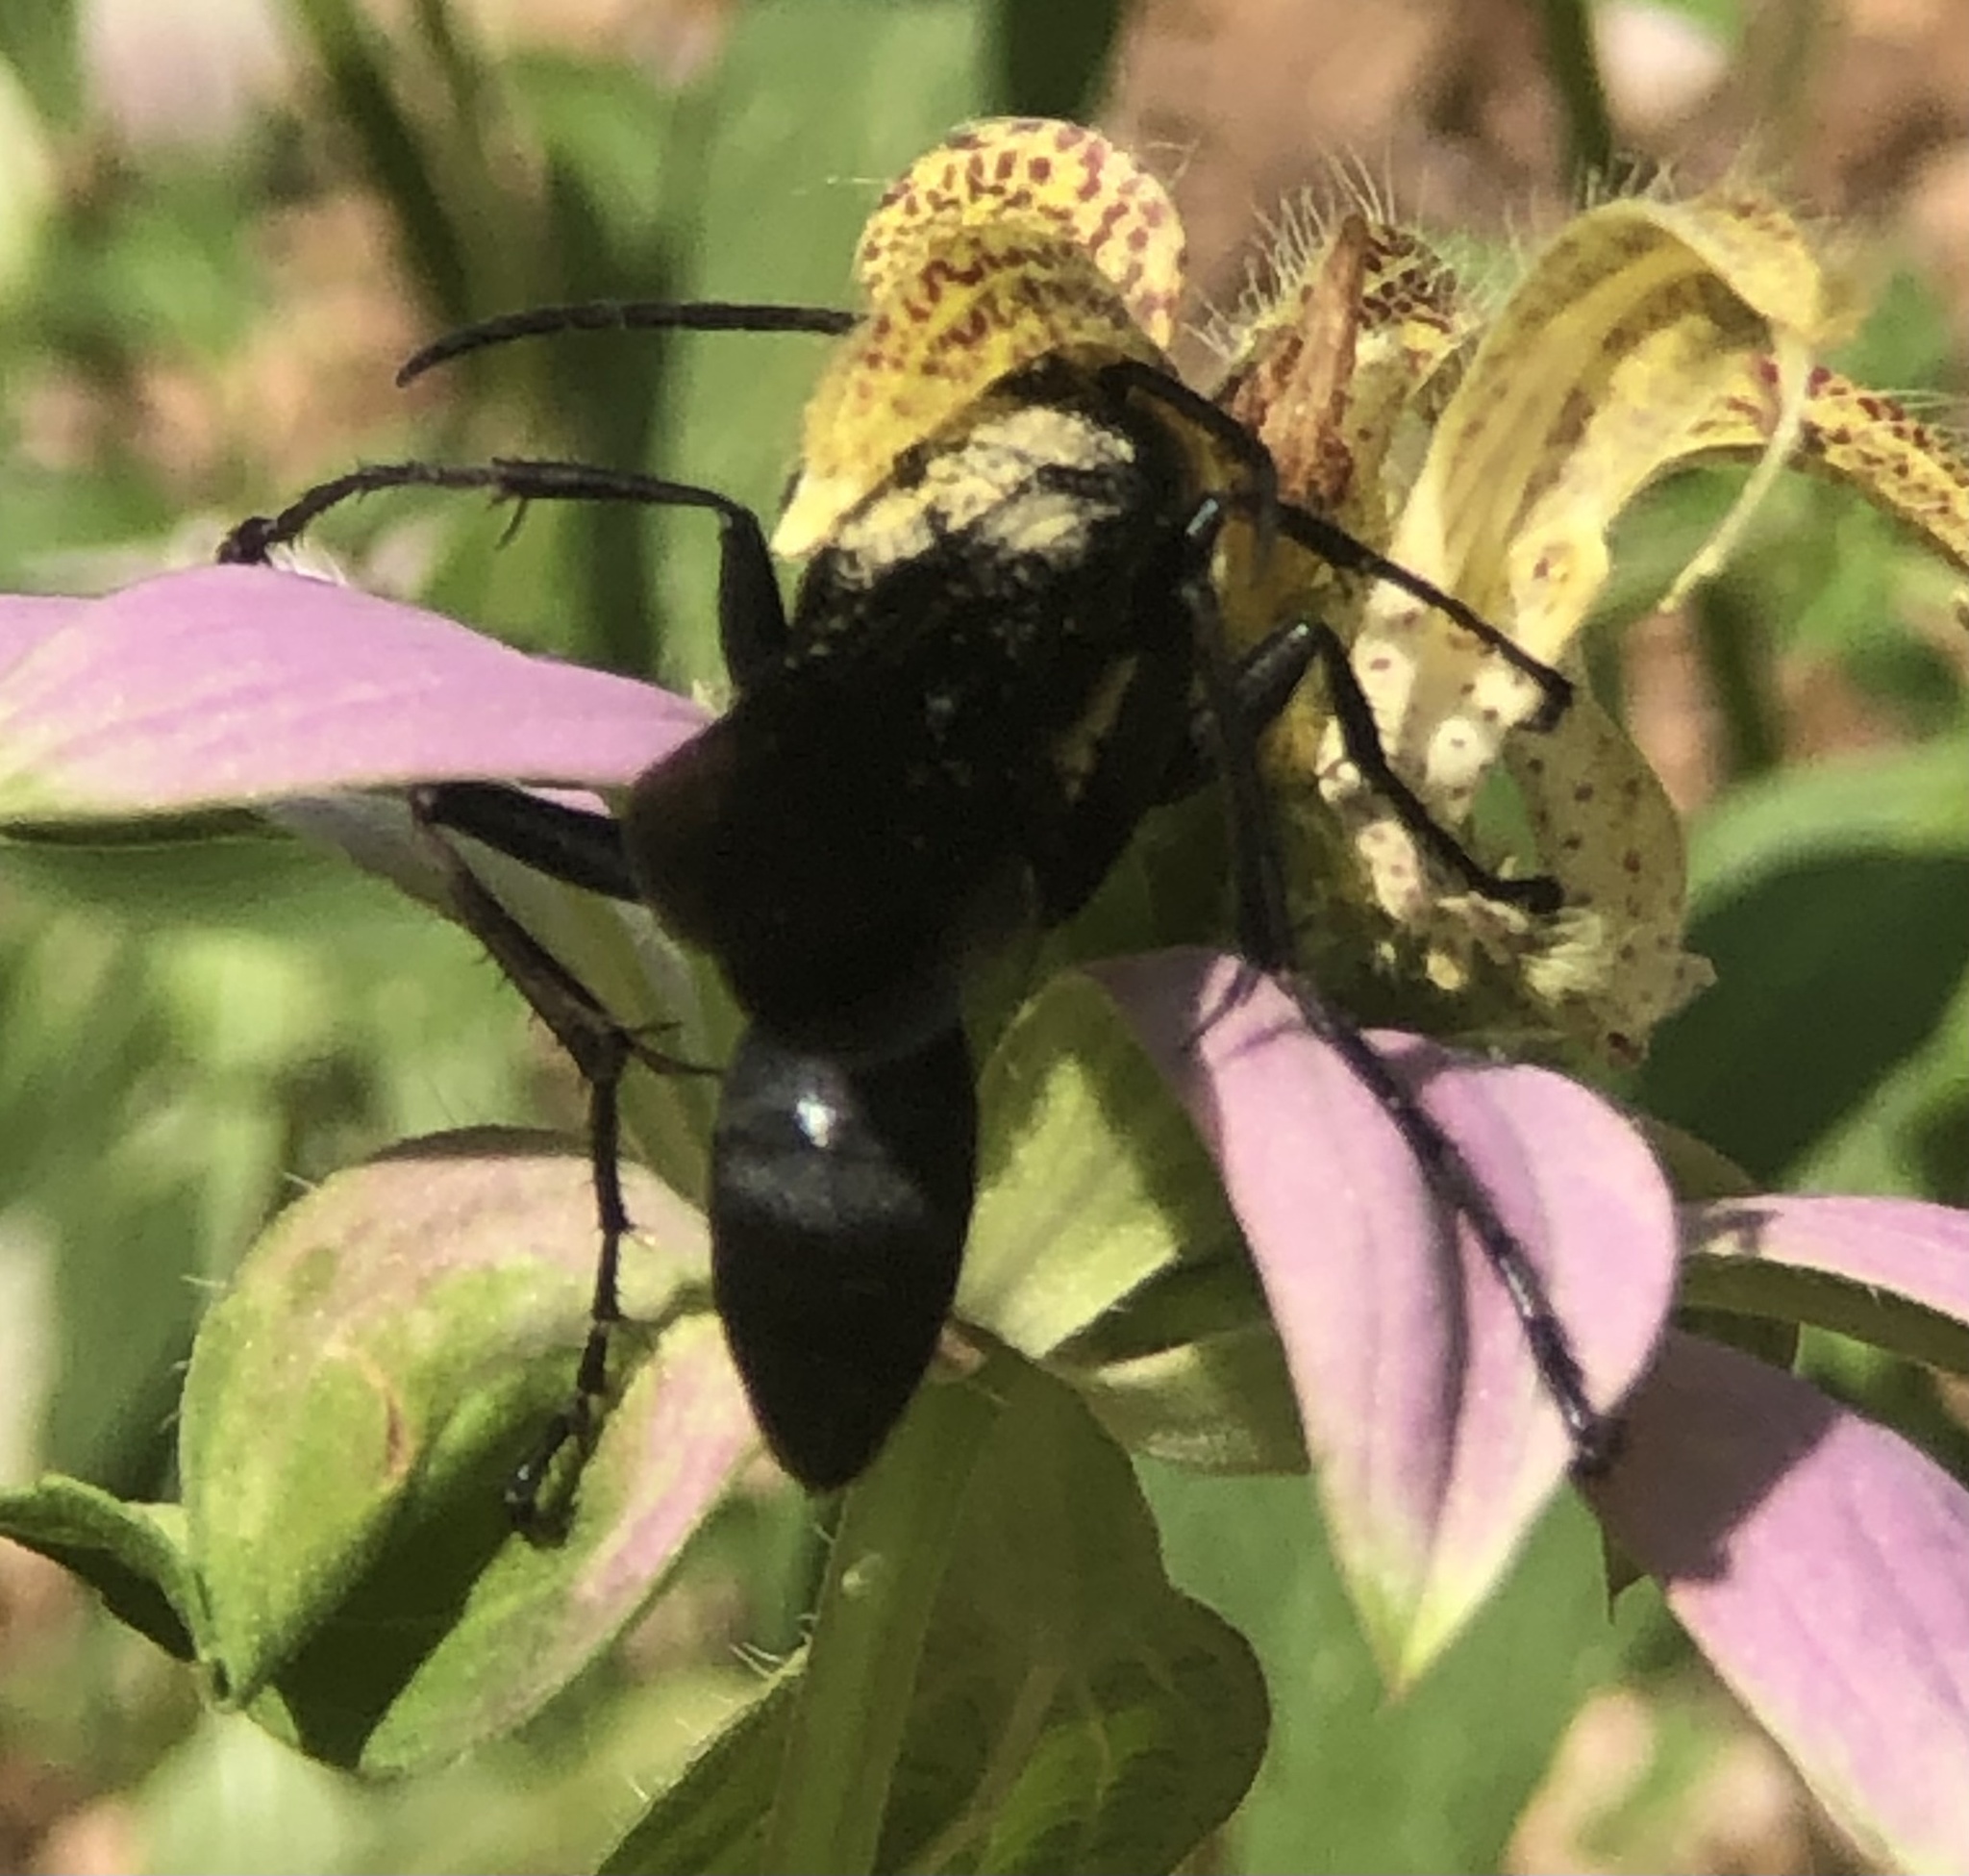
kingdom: Animalia
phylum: Arthropoda
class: Insecta
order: Hymenoptera
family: Sphecidae
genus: Sphex
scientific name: Sphex pensylvanicus
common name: Great black digger wasp
